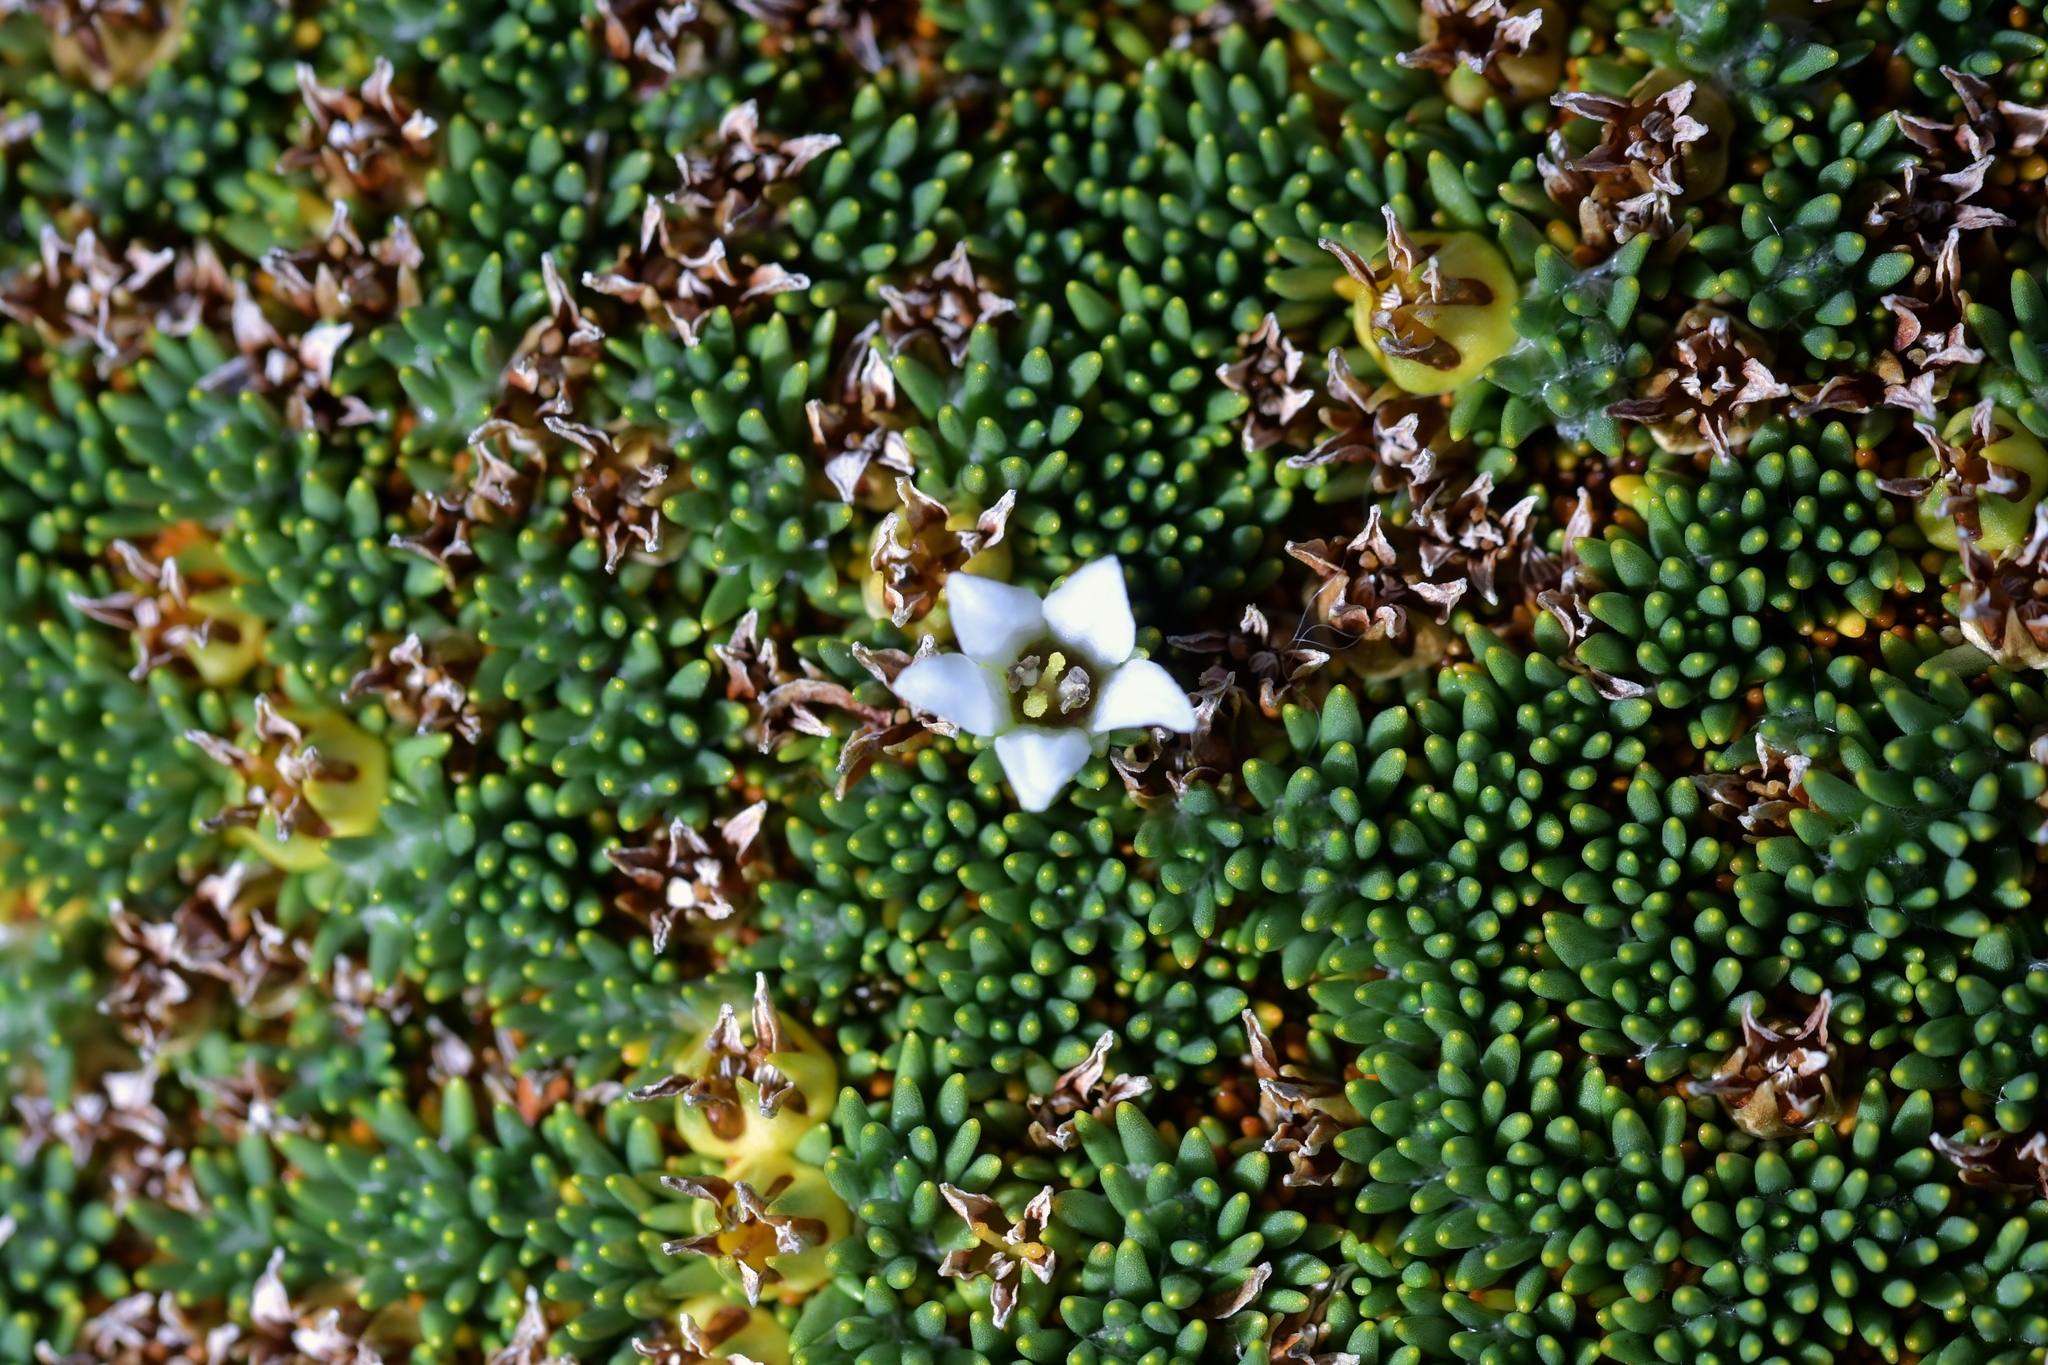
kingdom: Plantae
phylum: Tracheophyta
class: Magnoliopsida
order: Asterales
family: Stylidiaceae
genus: Donatia
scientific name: Donatia novae-zelandiae
